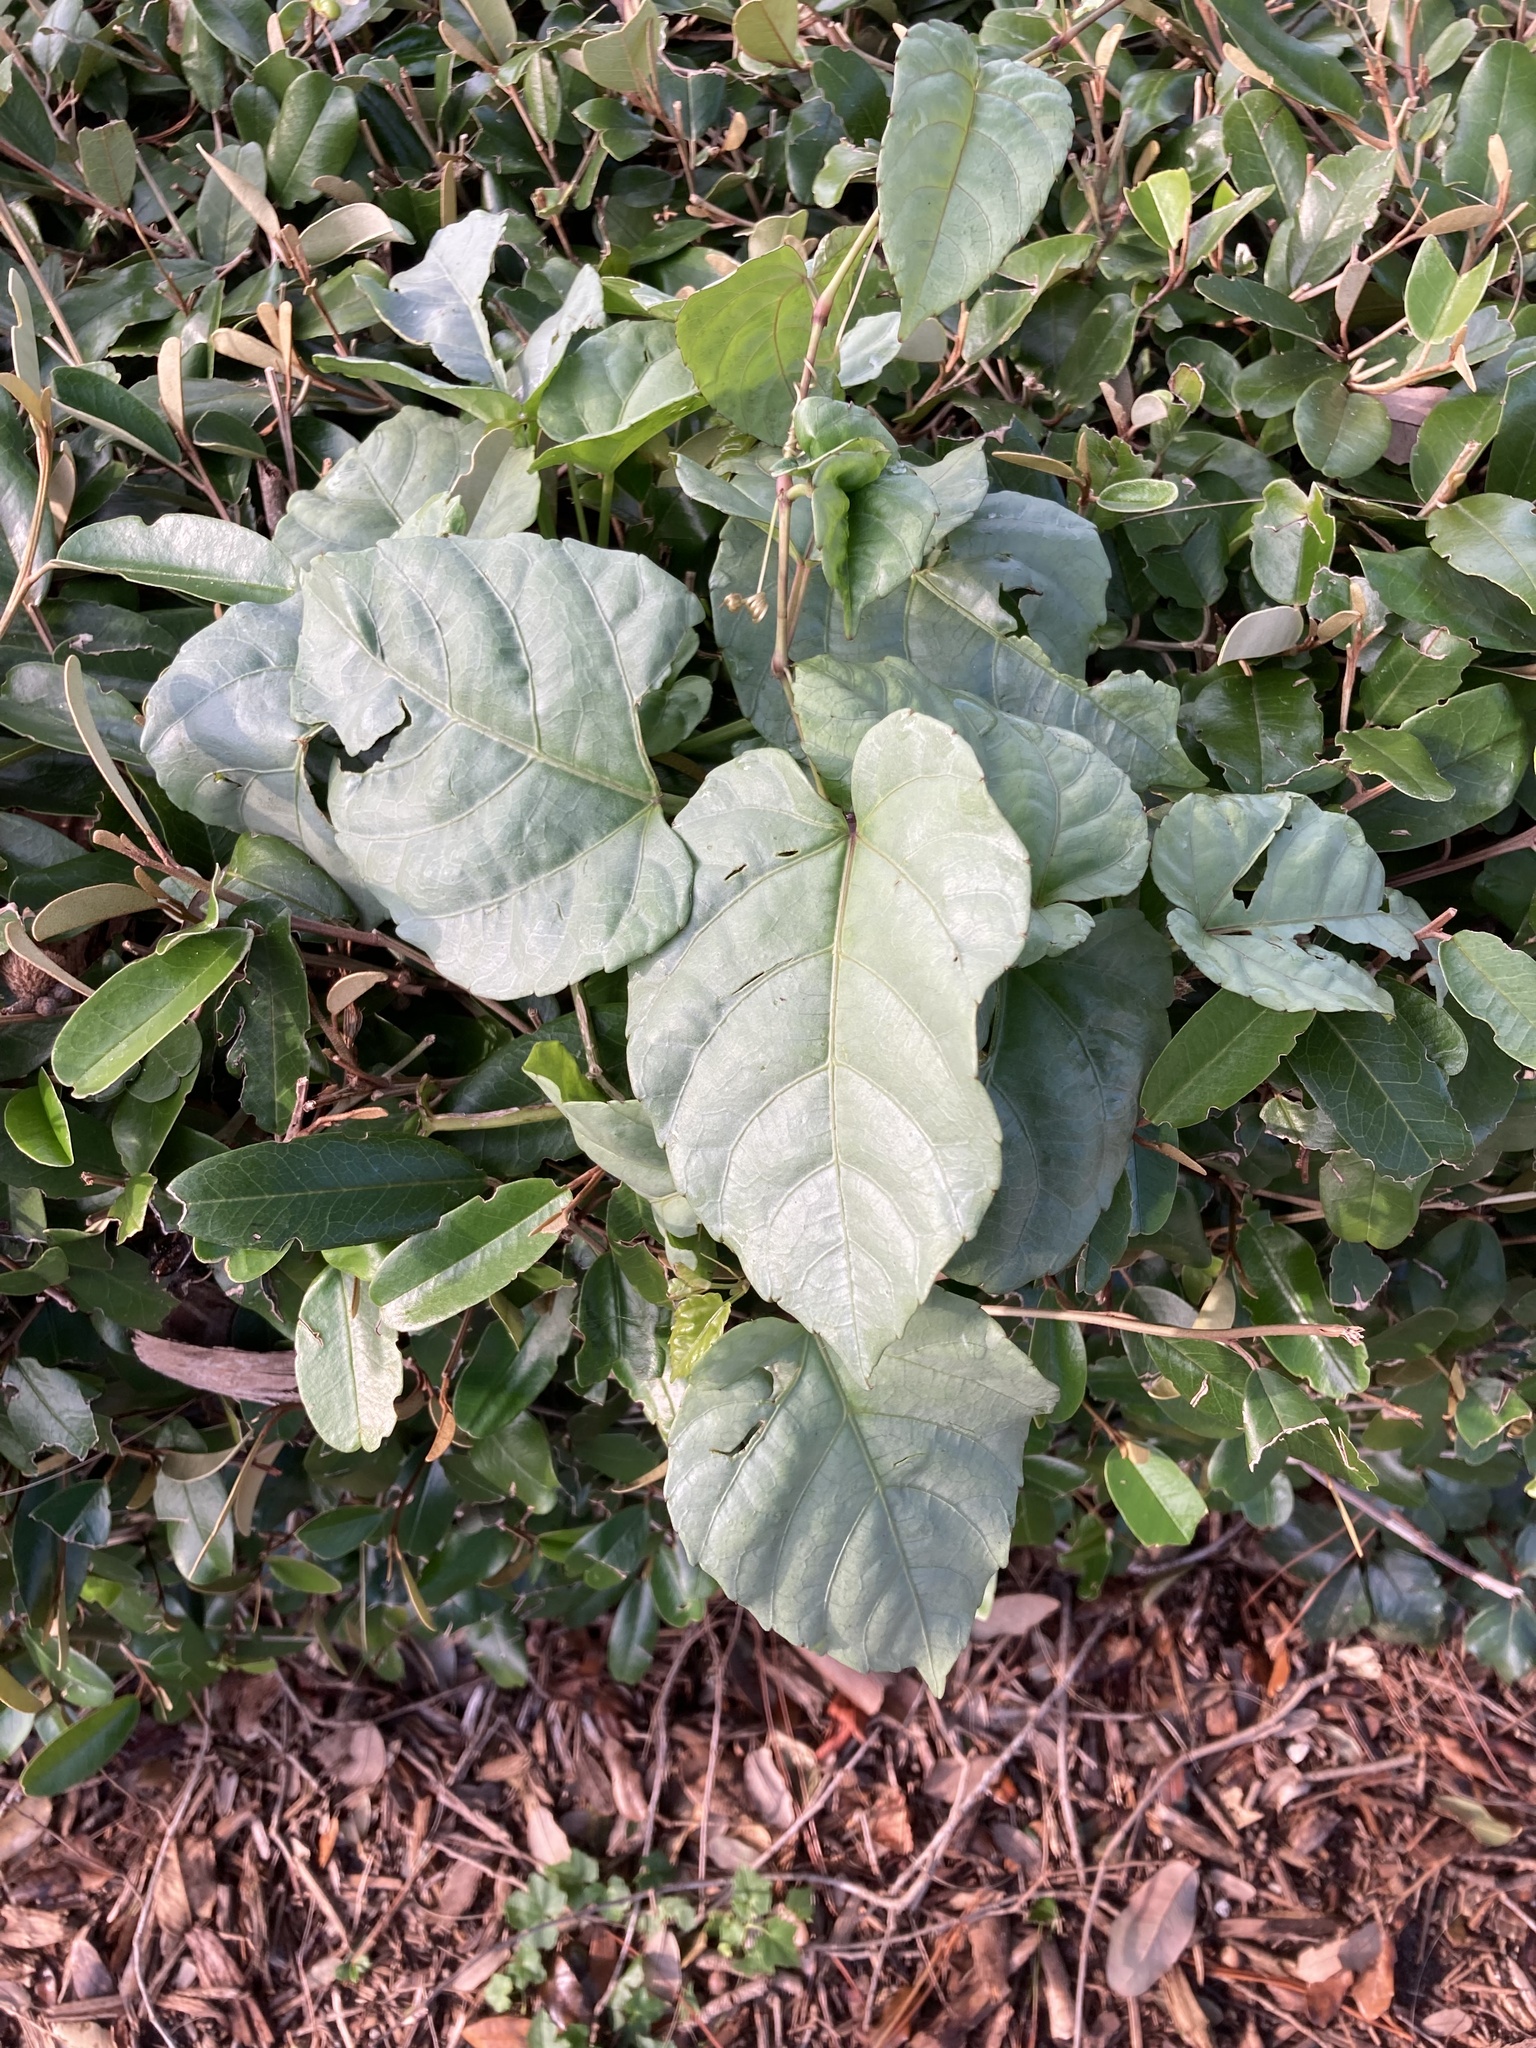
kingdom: Plantae
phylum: Tracheophyta
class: Magnoliopsida
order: Vitales
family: Vitaceae
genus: Cissus
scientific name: Cissus verticillata
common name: Princess vine
